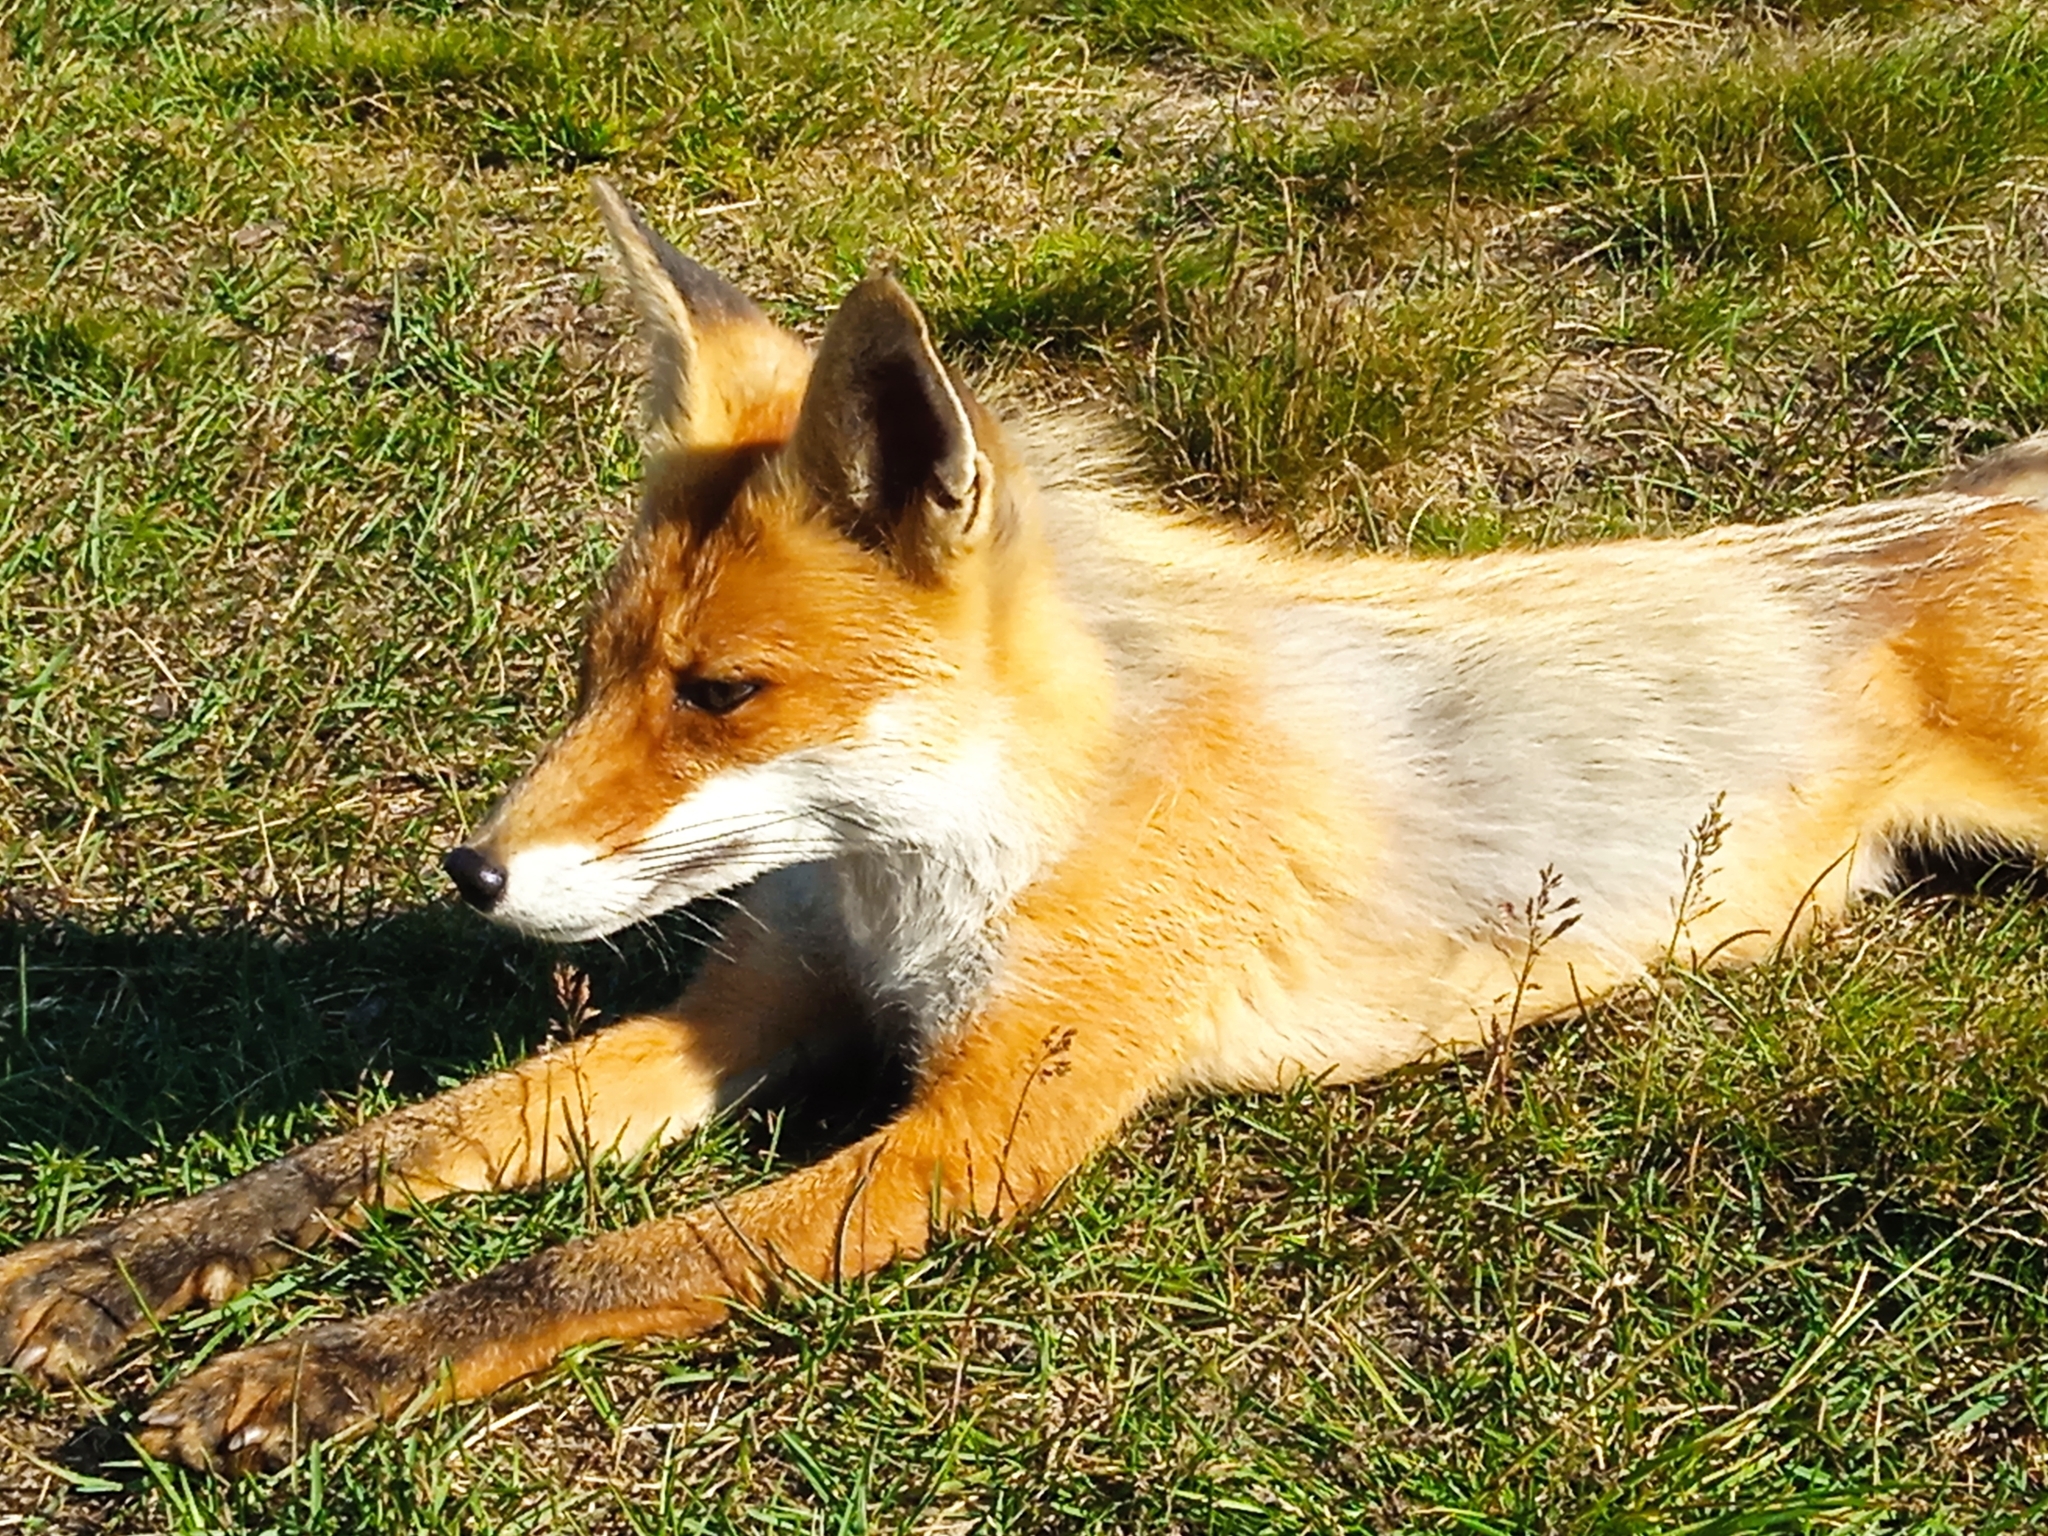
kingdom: Animalia
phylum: Chordata
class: Mammalia
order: Carnivora
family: Canidae
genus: Vulpes
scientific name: Vulpes vulpes
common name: Red fox
